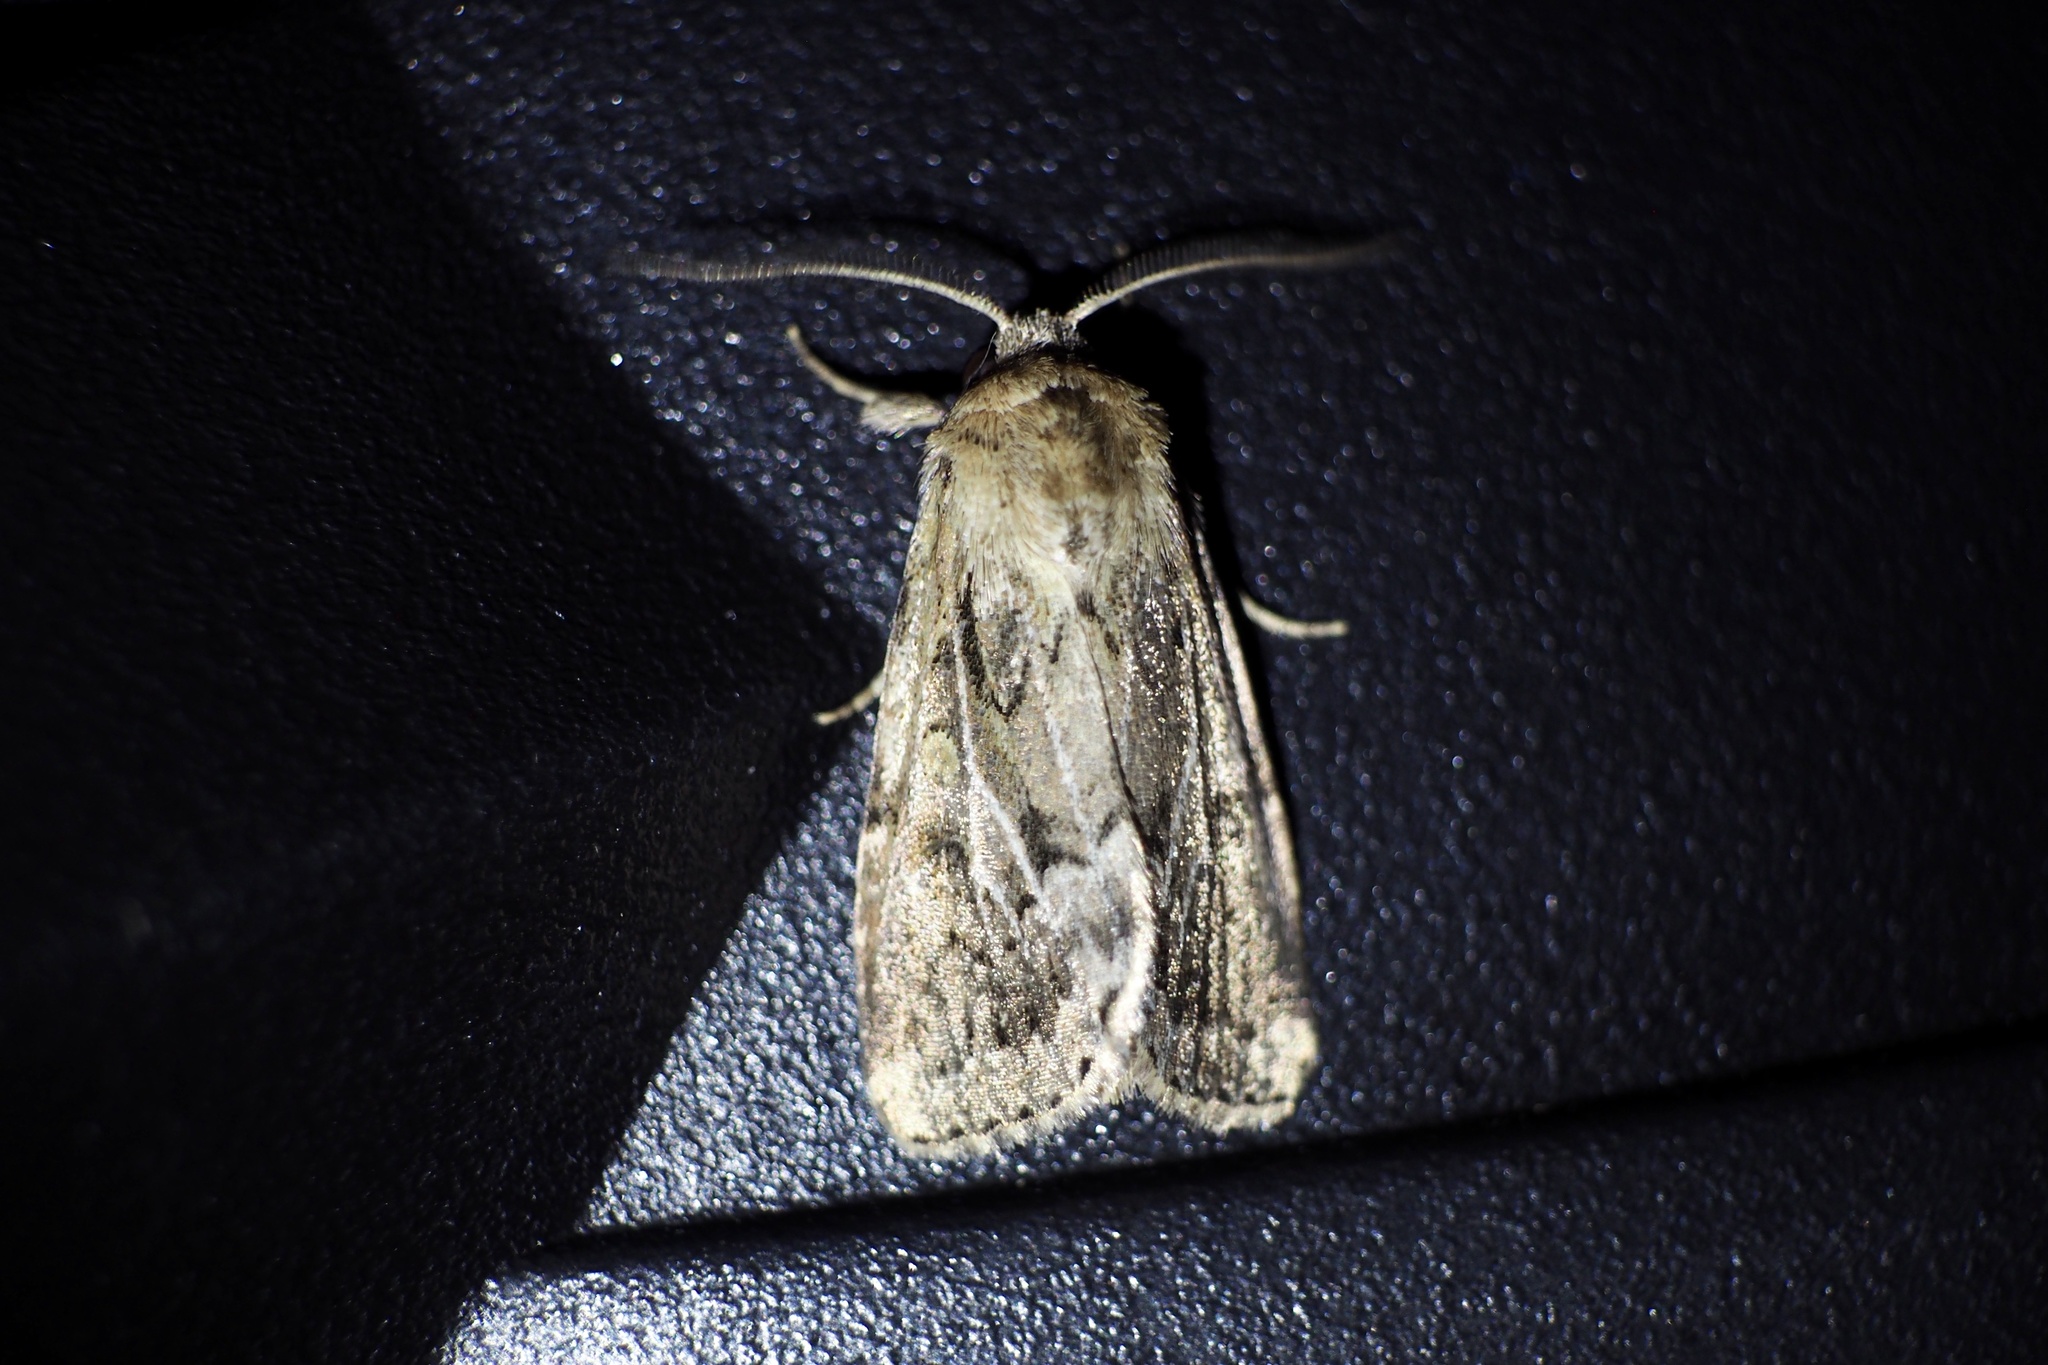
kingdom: Animalia
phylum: Arthropoda
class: Insecta
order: Lepidoptera
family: Noctuidae
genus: Spodoptera
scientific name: Spodoptera depravata
